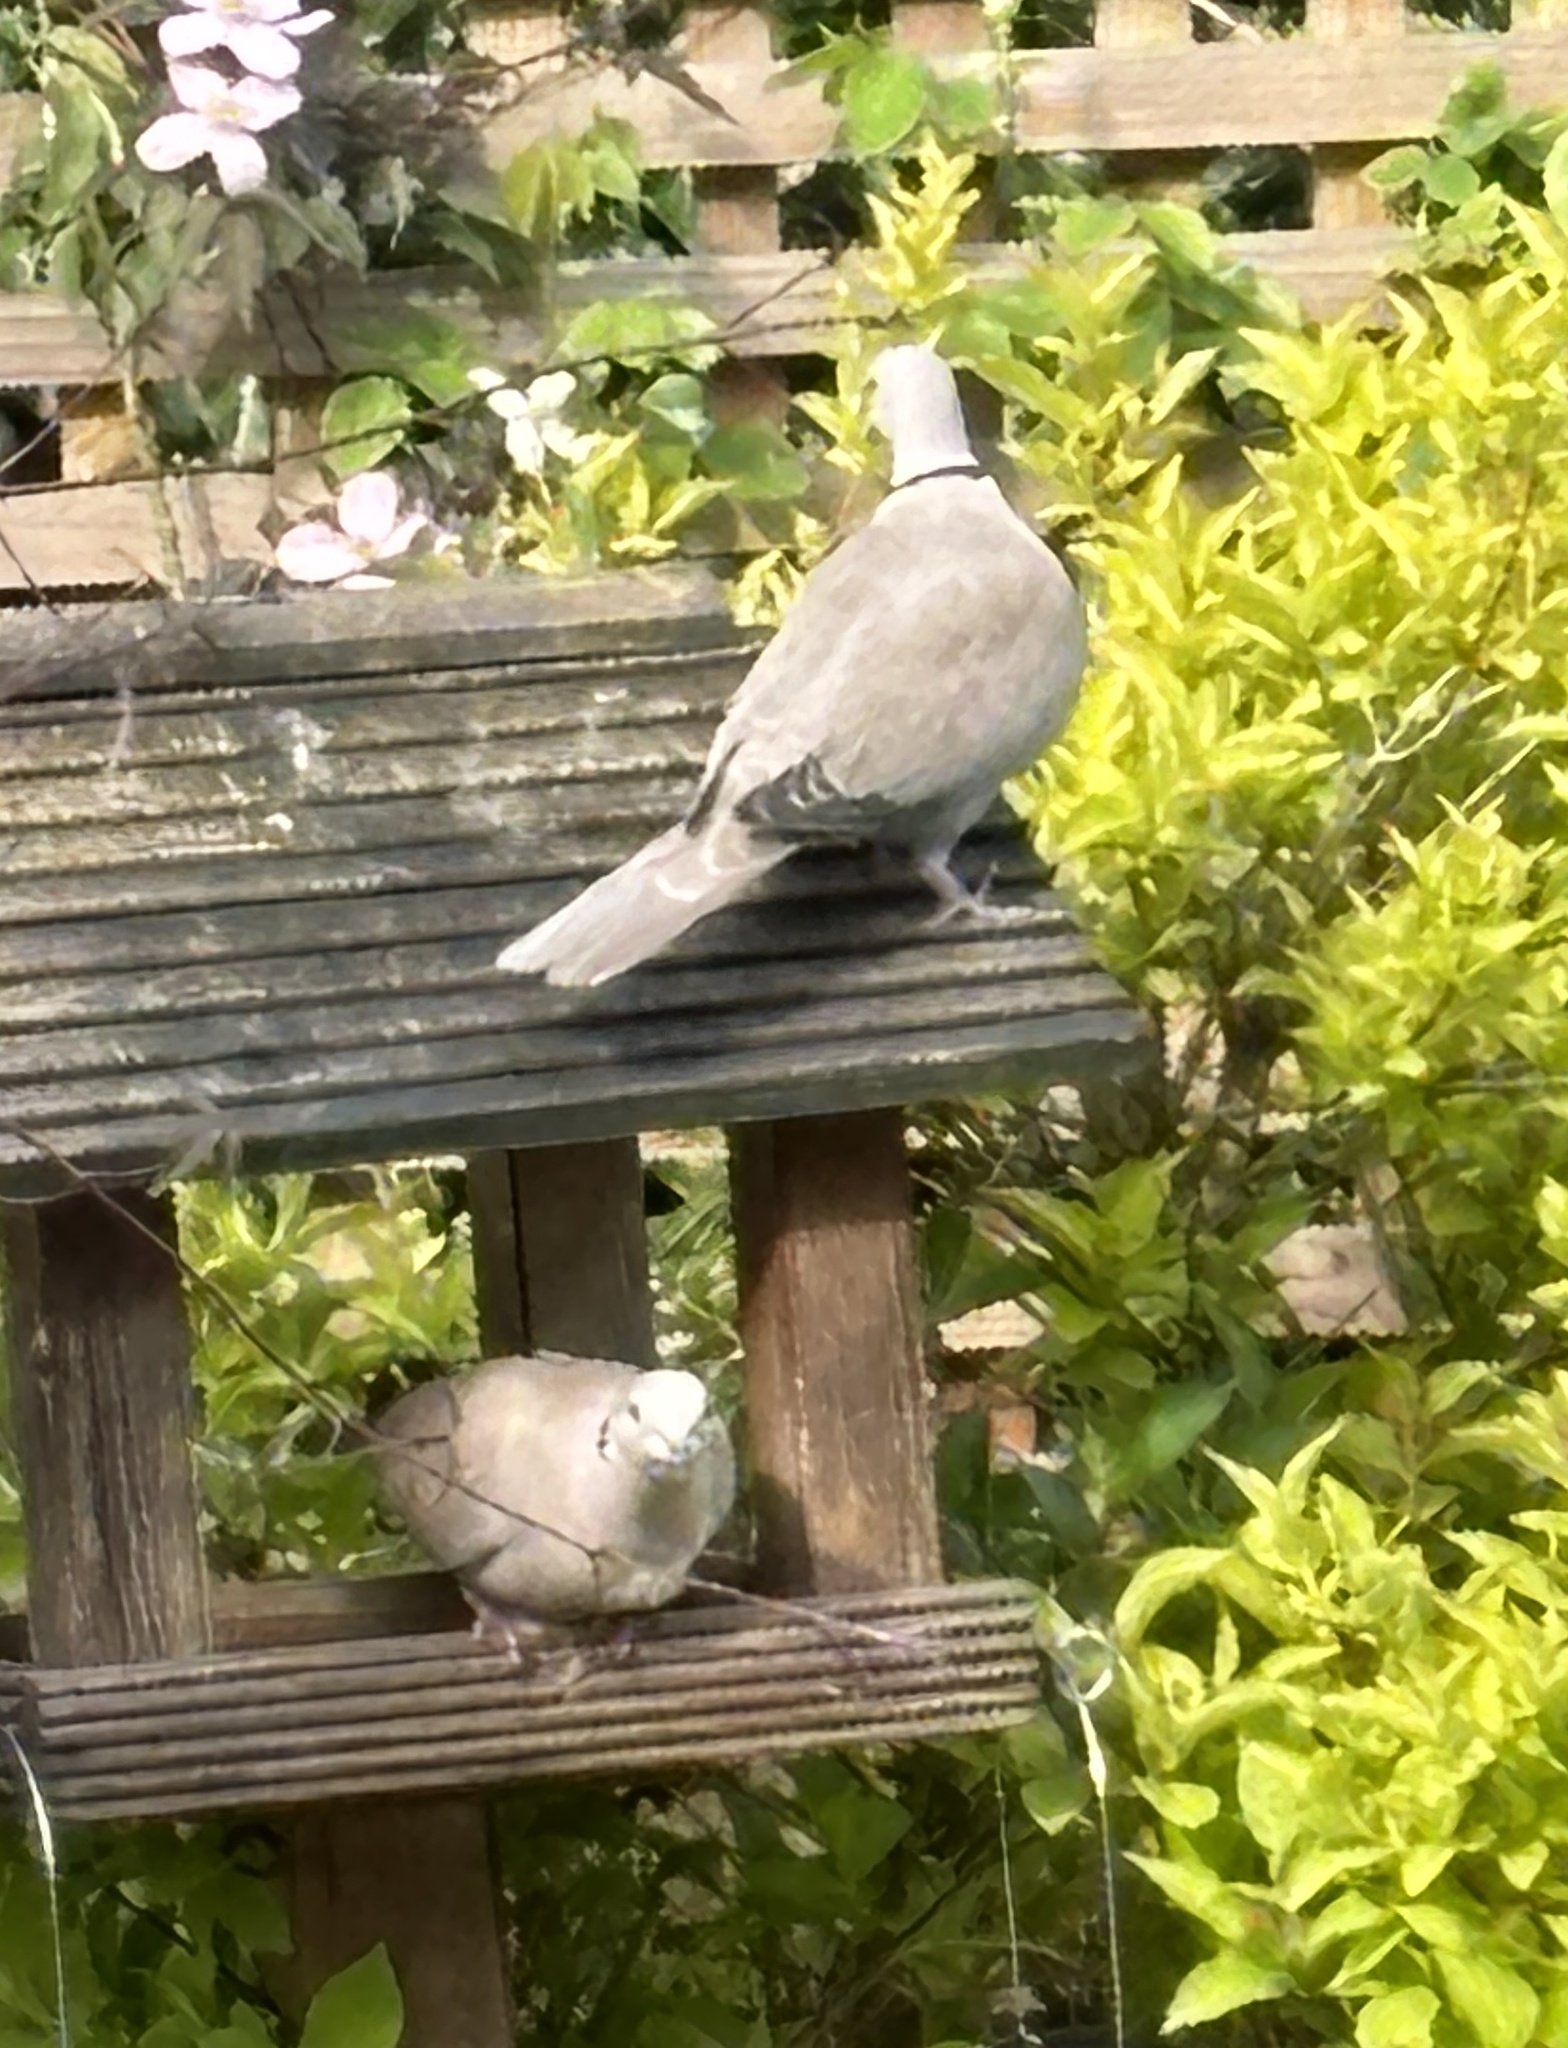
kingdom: Animalia
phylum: Chordata
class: Aves
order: Columbiformes
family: Columbidae
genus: Streptopelia
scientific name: Streptopelia decaocto
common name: Eurasian collared dove
